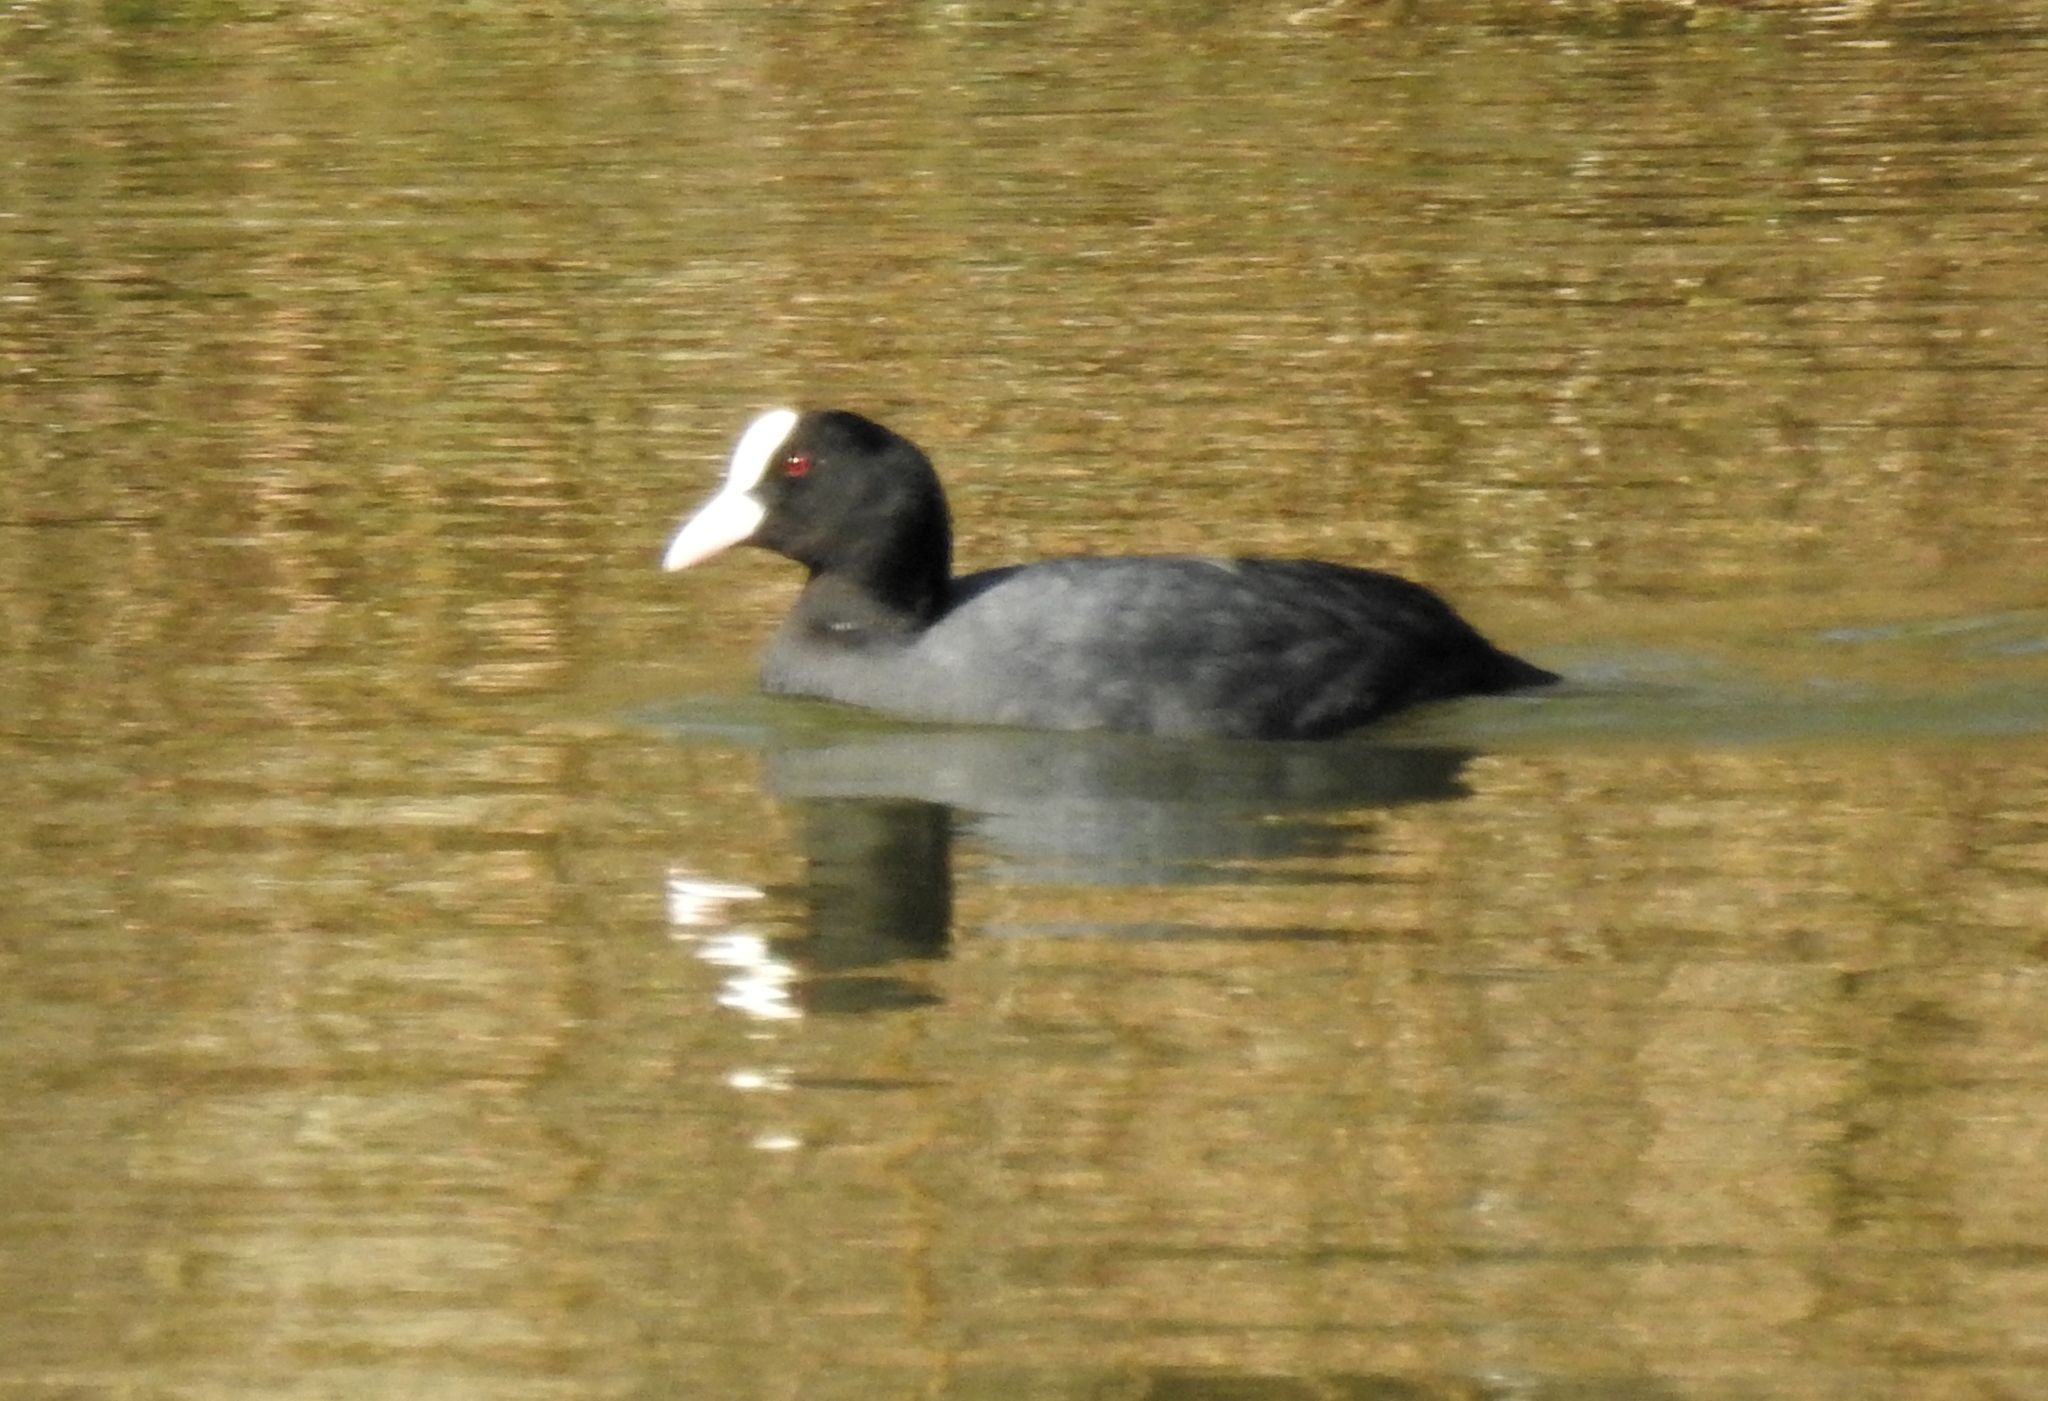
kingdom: Animalia
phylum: Chordata
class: Aves
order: Gruiformes
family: Rallidae
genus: Fulica
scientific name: Fulica atra
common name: Eurasian coot
